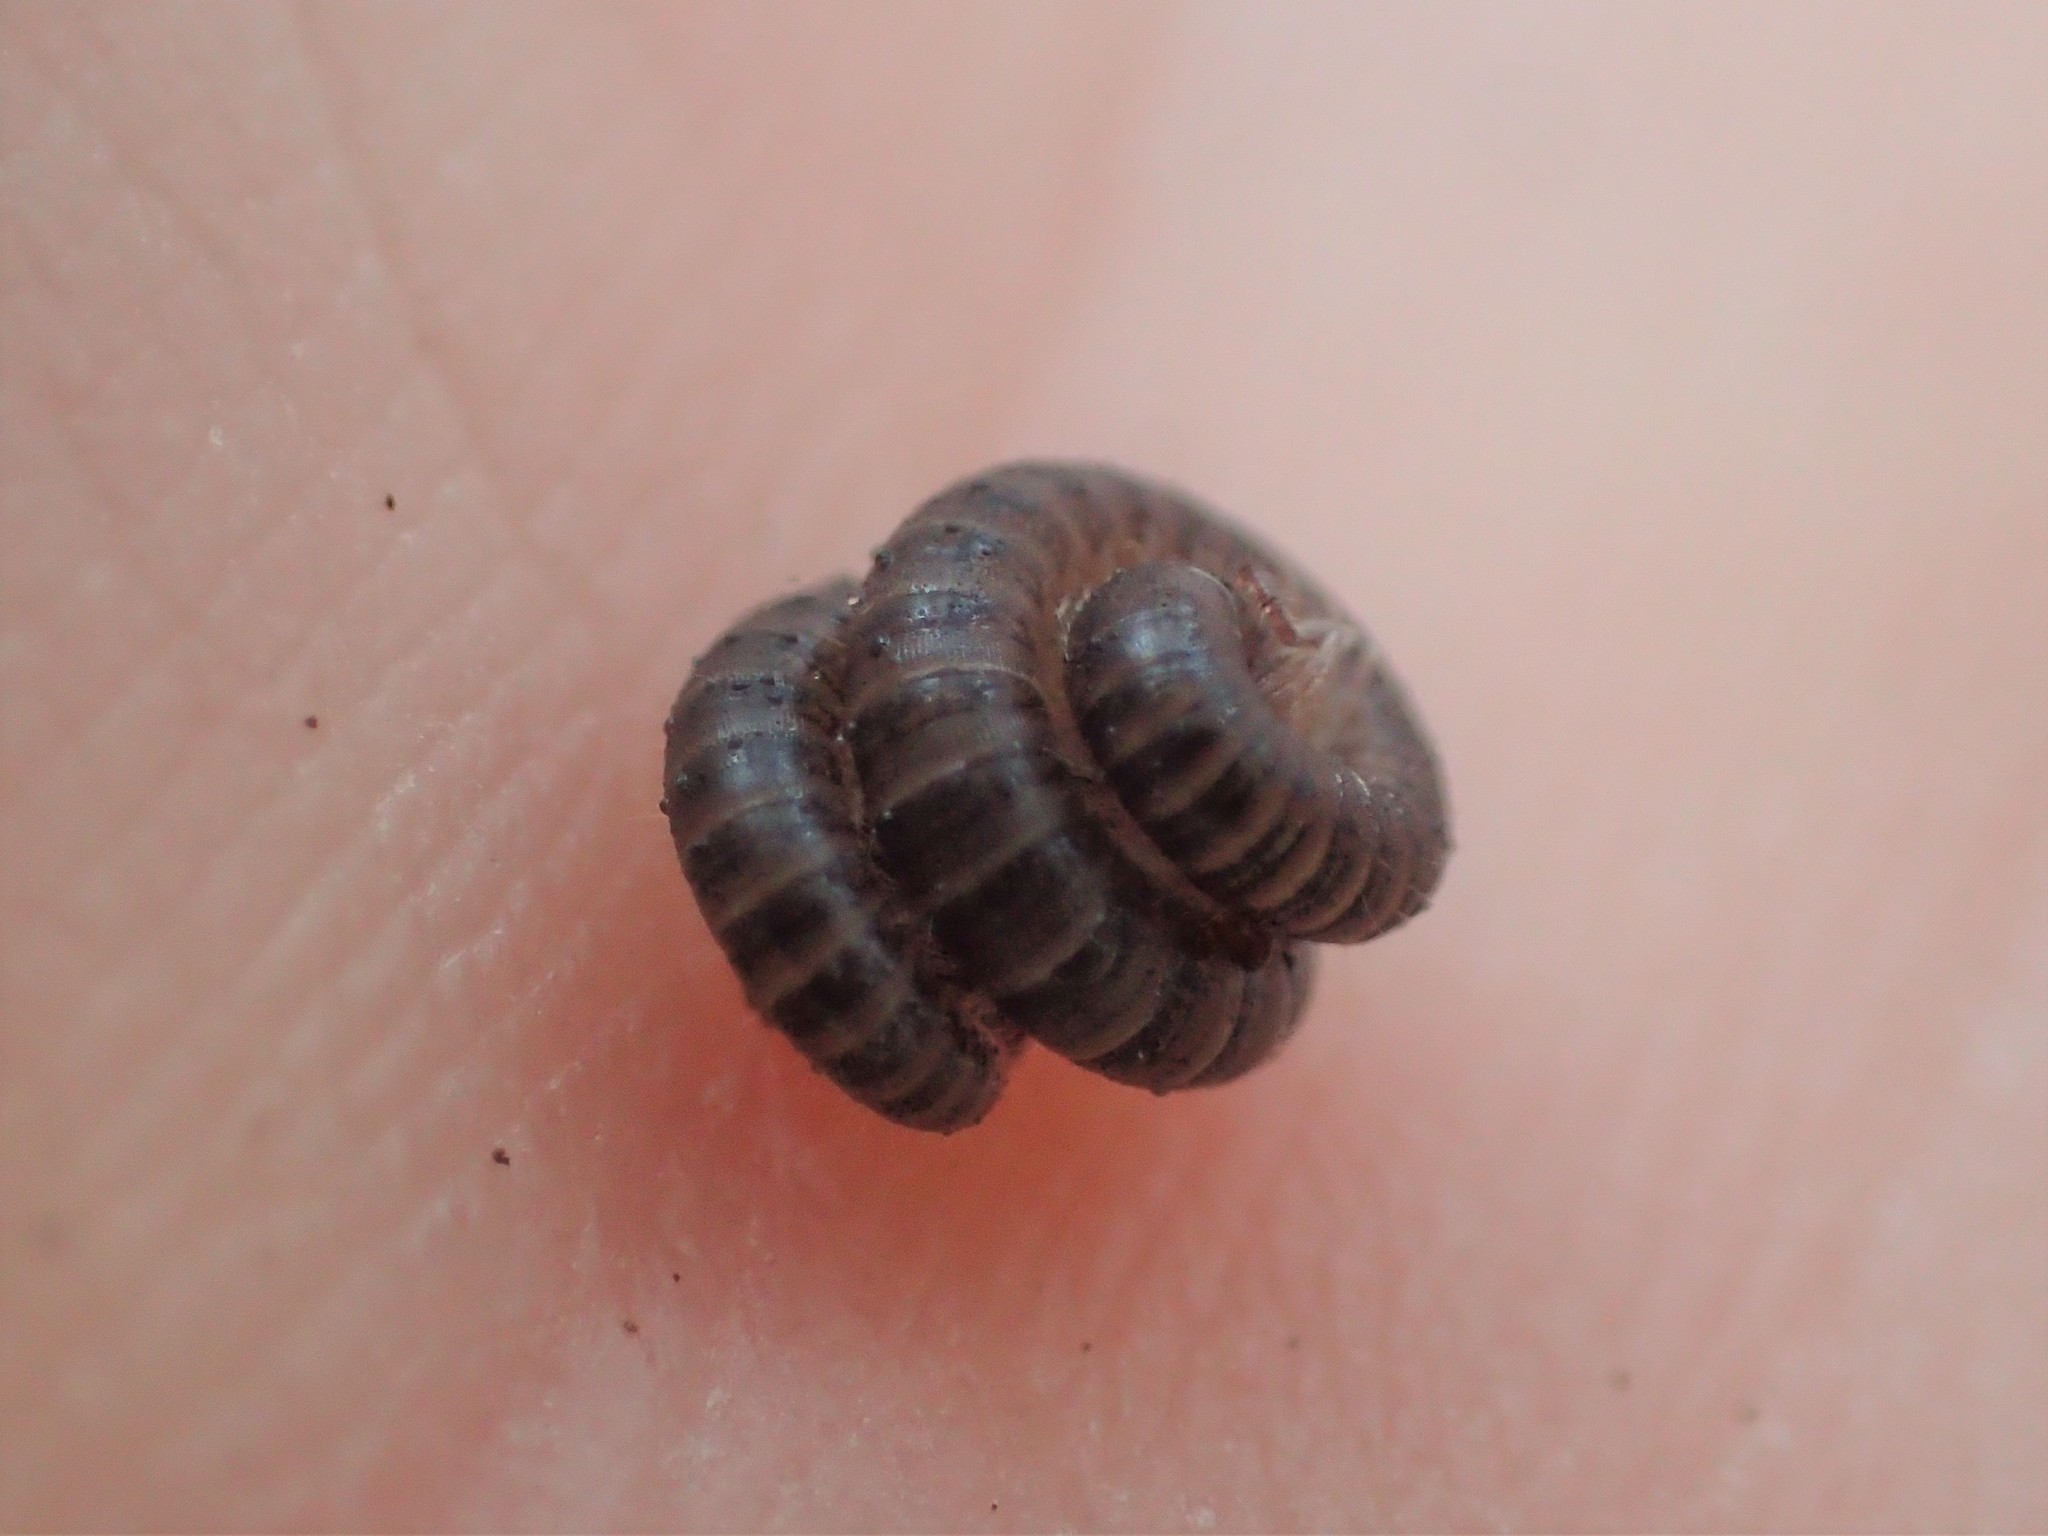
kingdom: Animalia
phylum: Arthropoda
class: Diplopoda
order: Julida
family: Julidae
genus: Ophyiulus
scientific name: Ophyiulus pilosus
